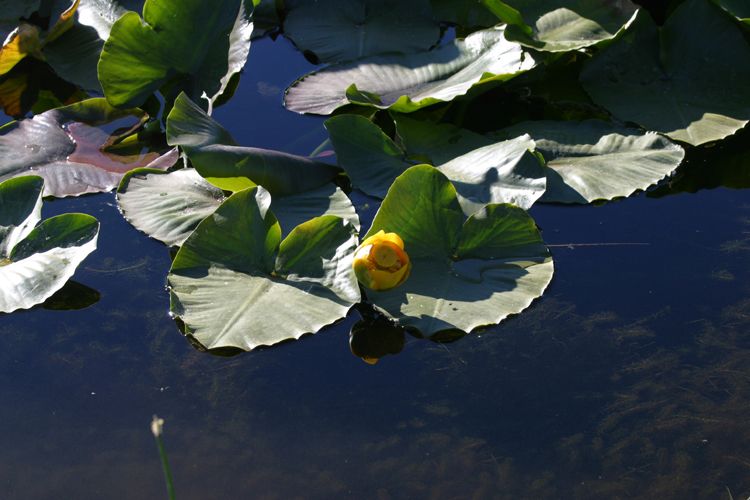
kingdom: Plantae
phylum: Tracheophyta
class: Magnoliopsida
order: Nymphaeales
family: Nymphaeaceae
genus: Nuphar
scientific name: Nuphar polysepala
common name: Rocky mountain cow-lily
